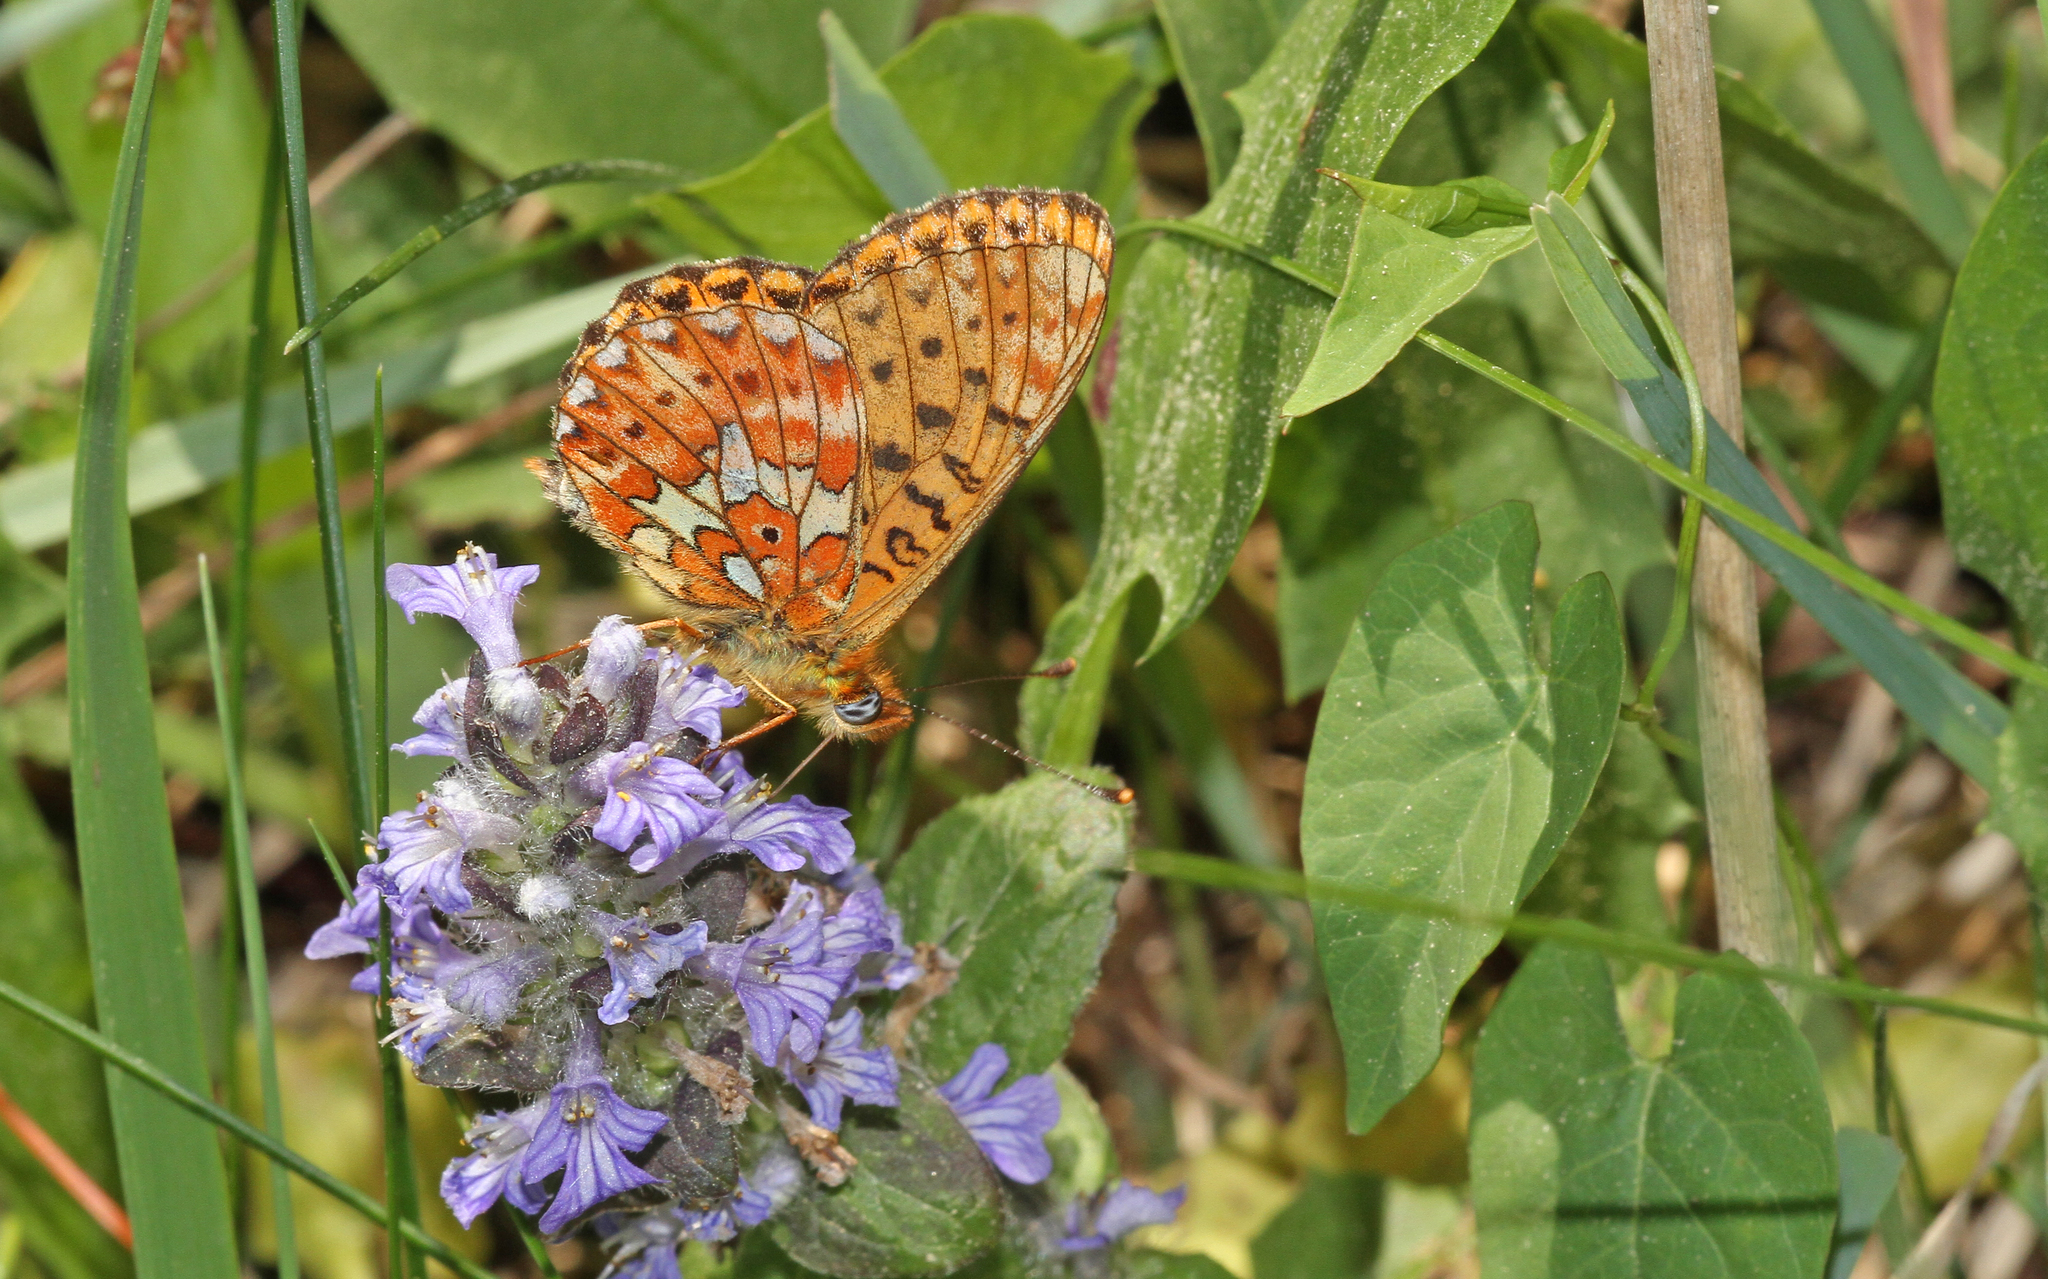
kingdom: Animalia
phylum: Arthropoda
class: Insecta
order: Lepidoptera
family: Nymphalidae
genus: Clossiana
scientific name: Clossiana euphrosyne
